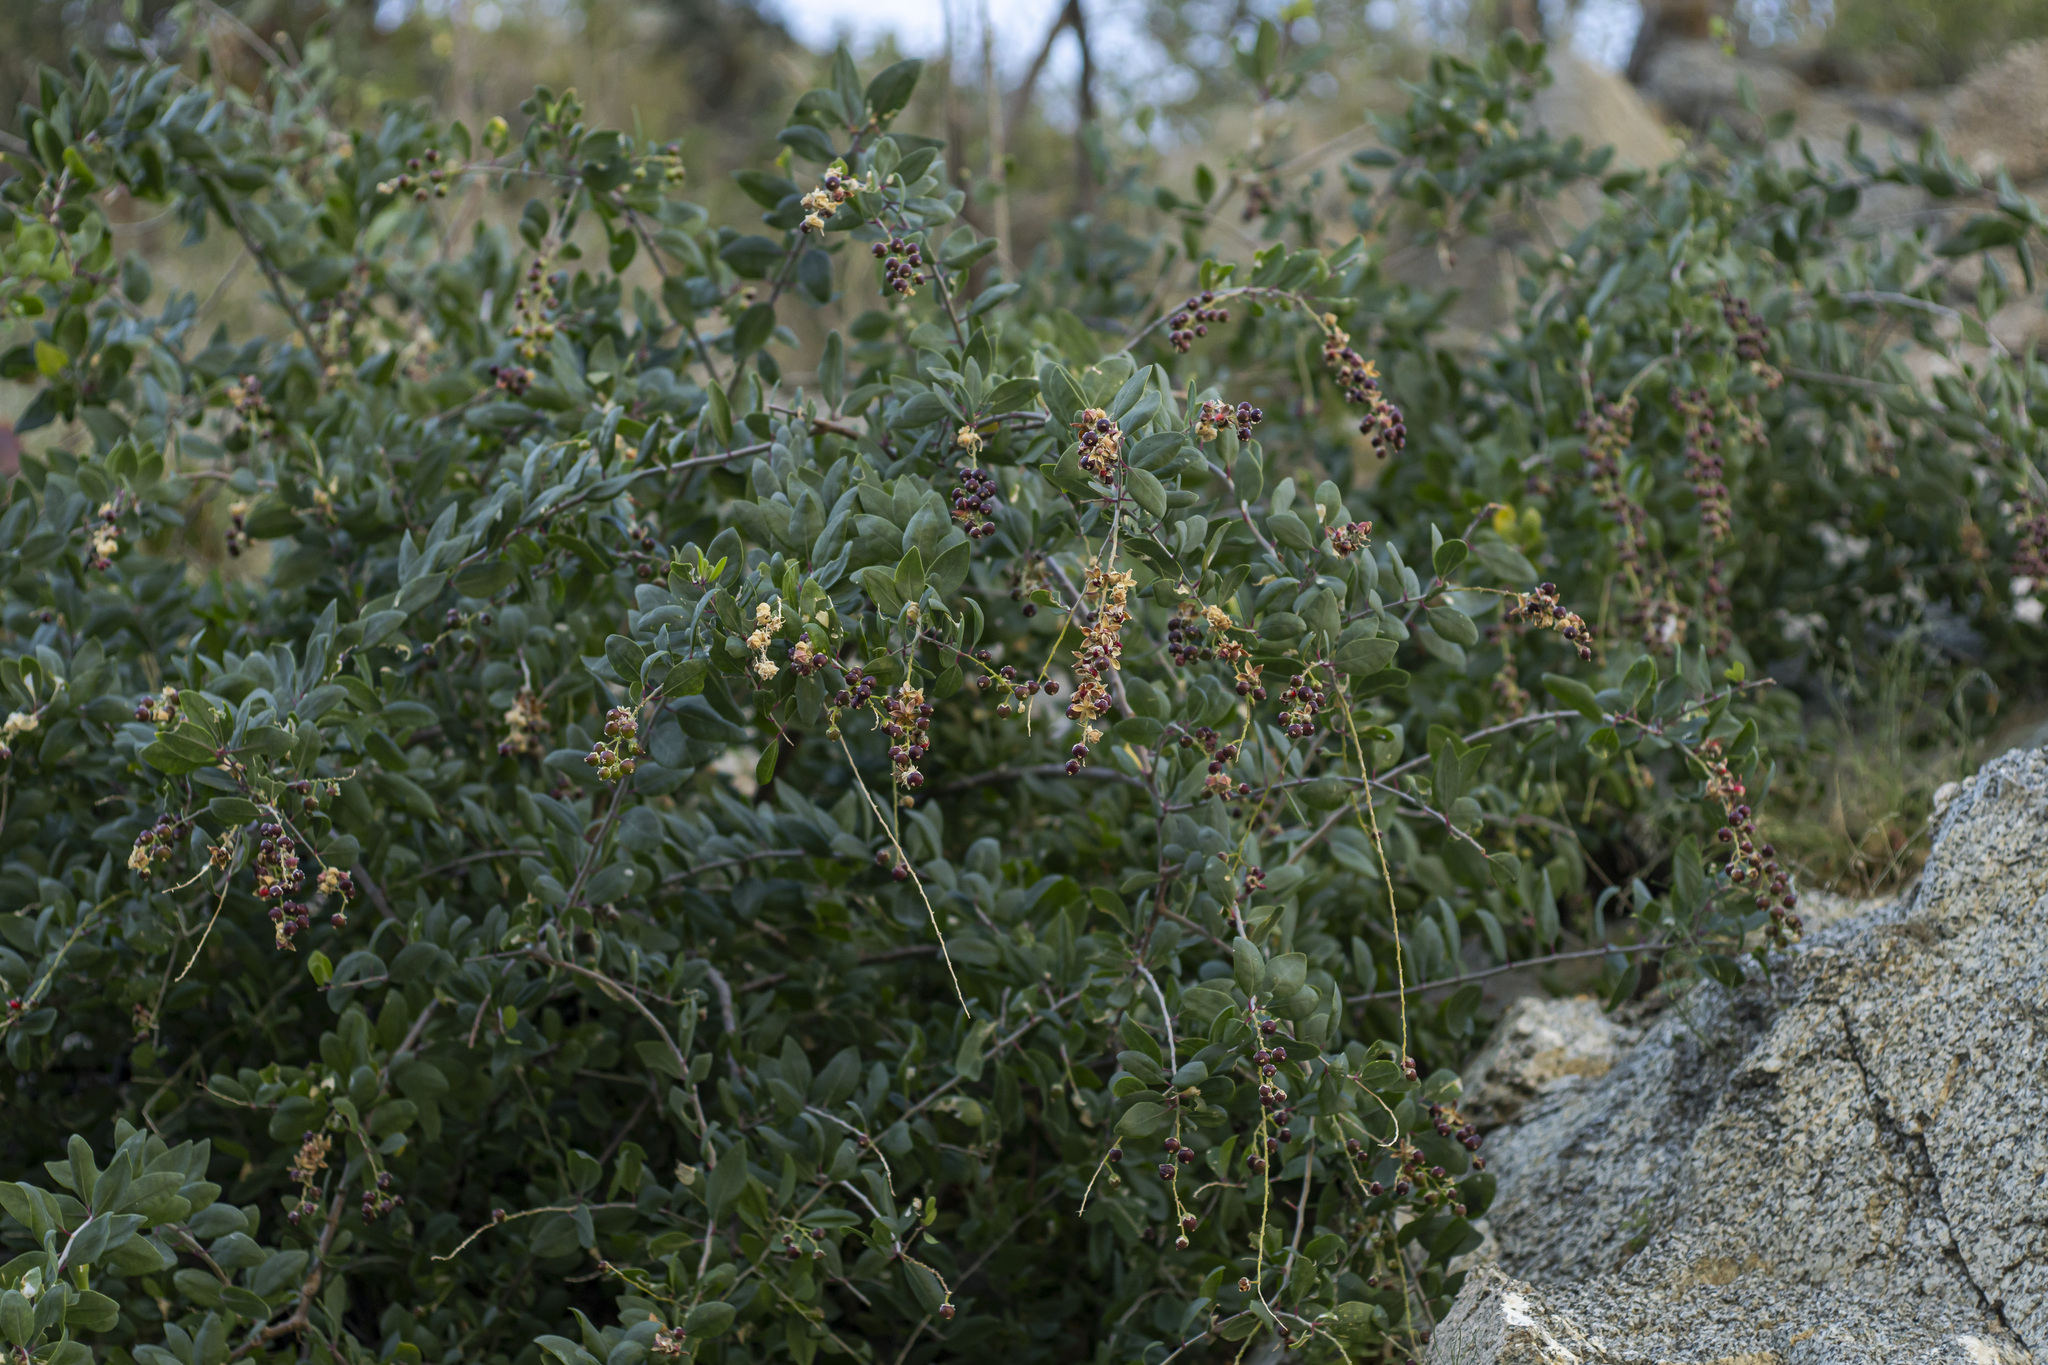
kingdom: Plantae
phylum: Tracheophyta
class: Magnoliopsida
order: Caryophyllales
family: Stegnospermataceae
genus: Stegnosperma
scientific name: Stegnosperma halimifolium
